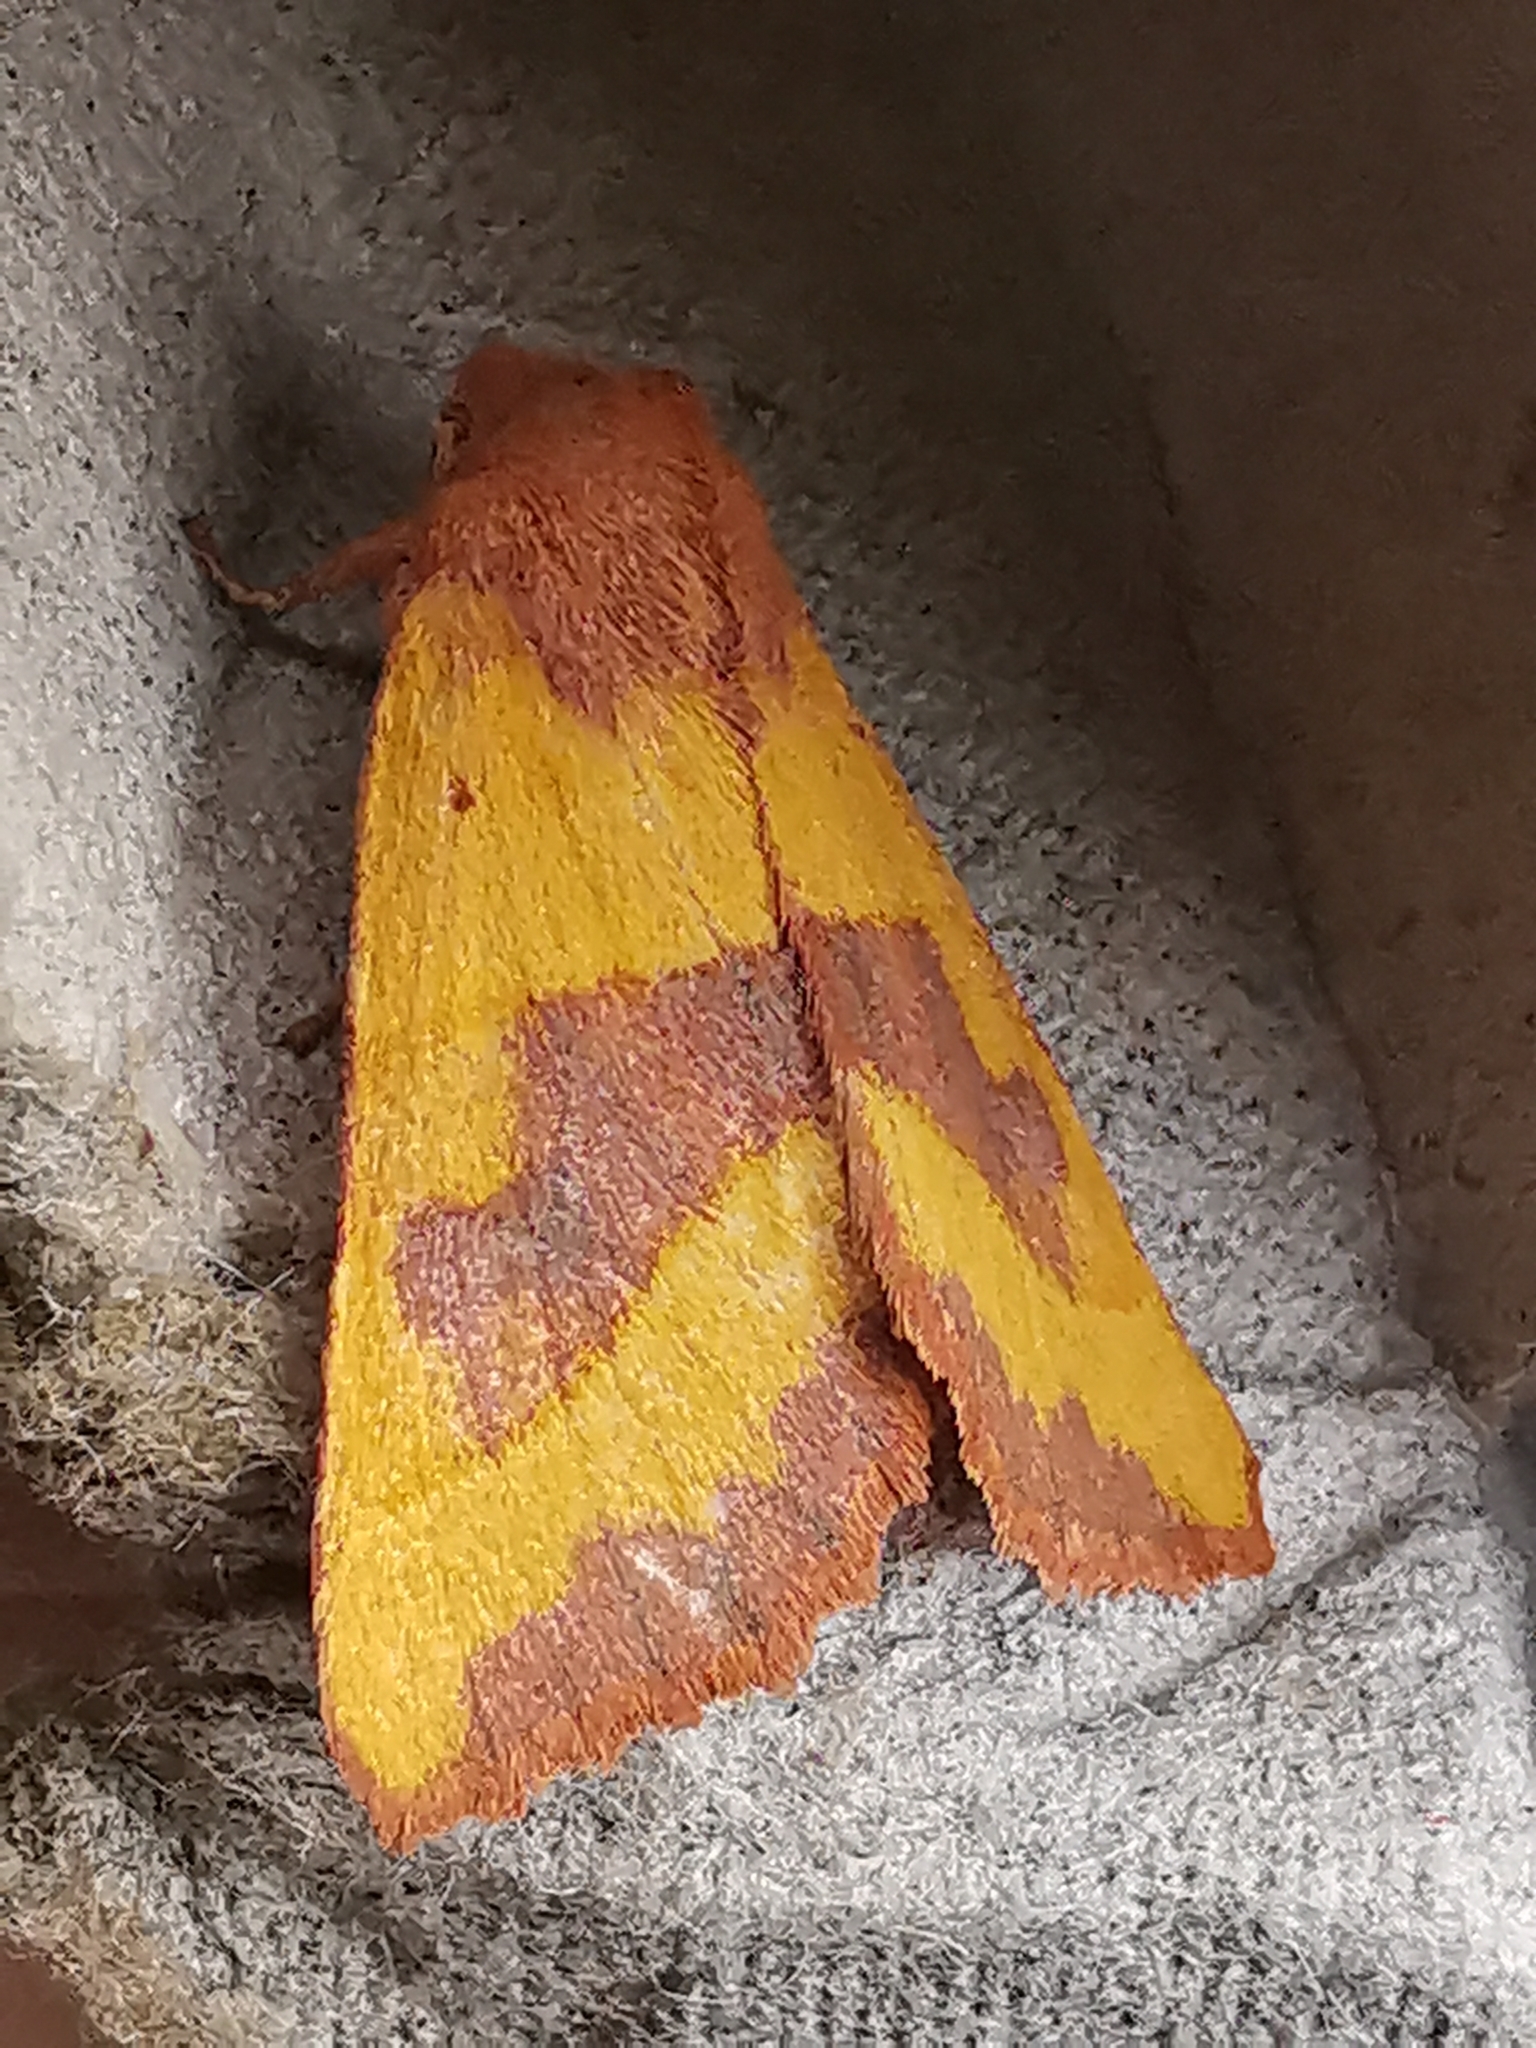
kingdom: Animalia
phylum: Arthropoda
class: Insecta
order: Lepidoptera
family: Noctuidae
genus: Atethmia
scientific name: Atethmia centrago
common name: Centre-barred sallow
